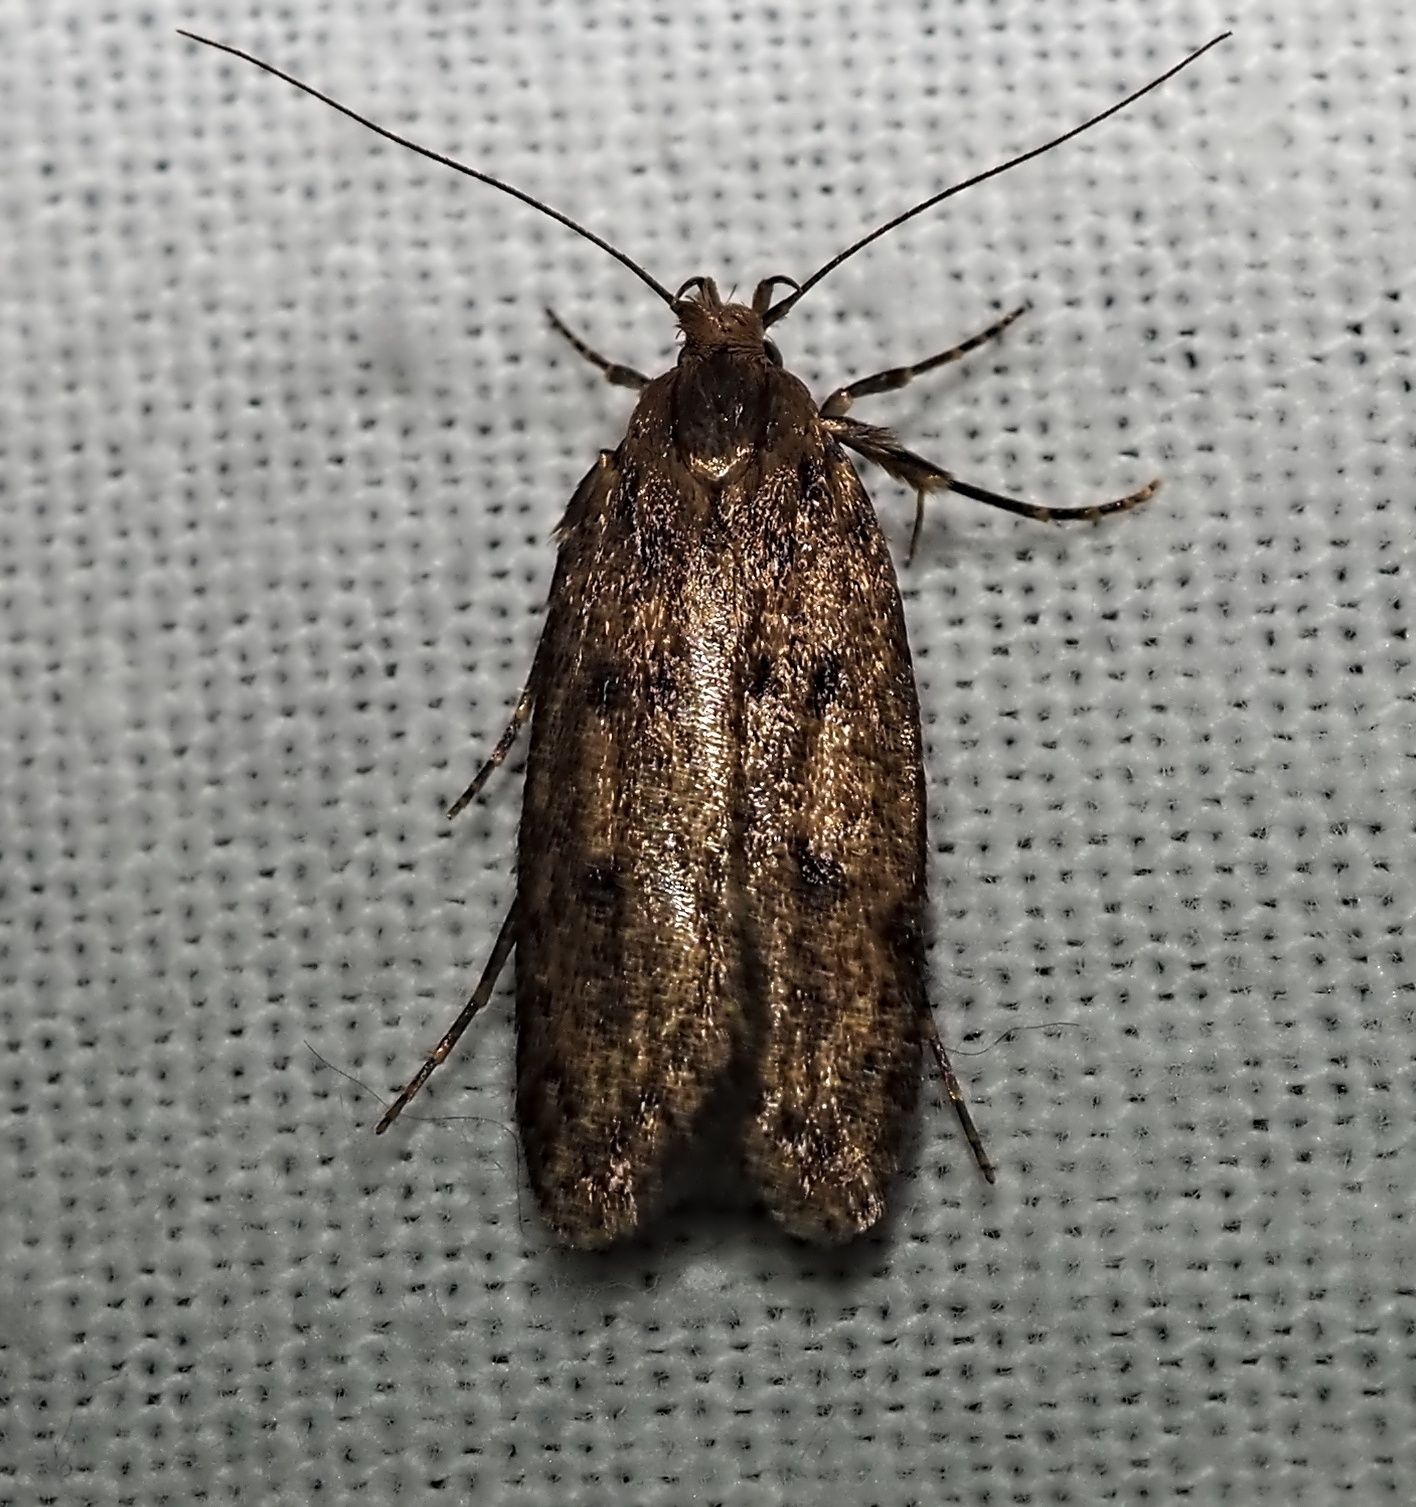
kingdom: Animalia
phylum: Arthropoda
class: Insecta
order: Lepidoptera
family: Oecophoridae
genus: Hofmannophila
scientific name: Hofmannophila pseudospretella
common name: Brown house moth
